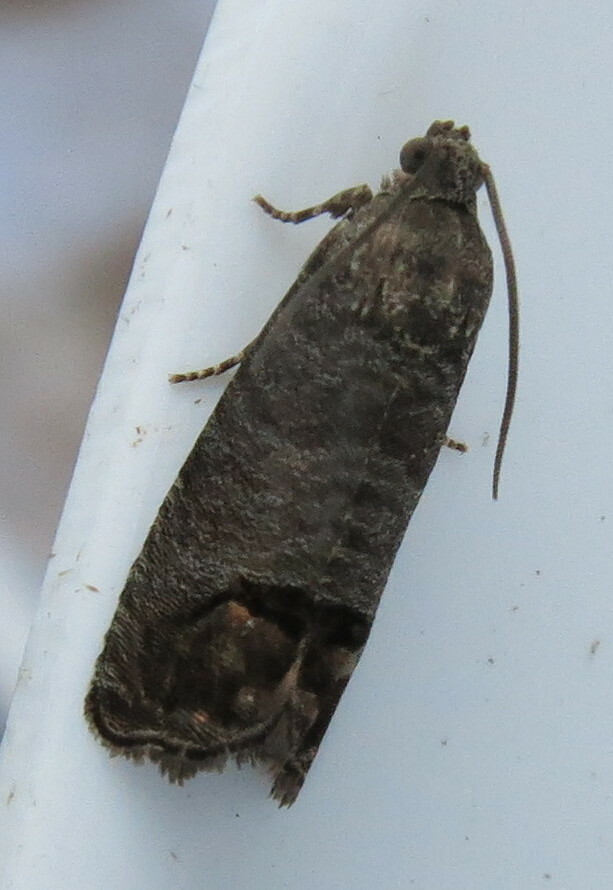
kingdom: Animalia
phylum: Arthropoda
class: Insecta
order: Lepidoptera
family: Tortricidae
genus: Cydia
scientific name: Cydia pomonella
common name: Codling moth
